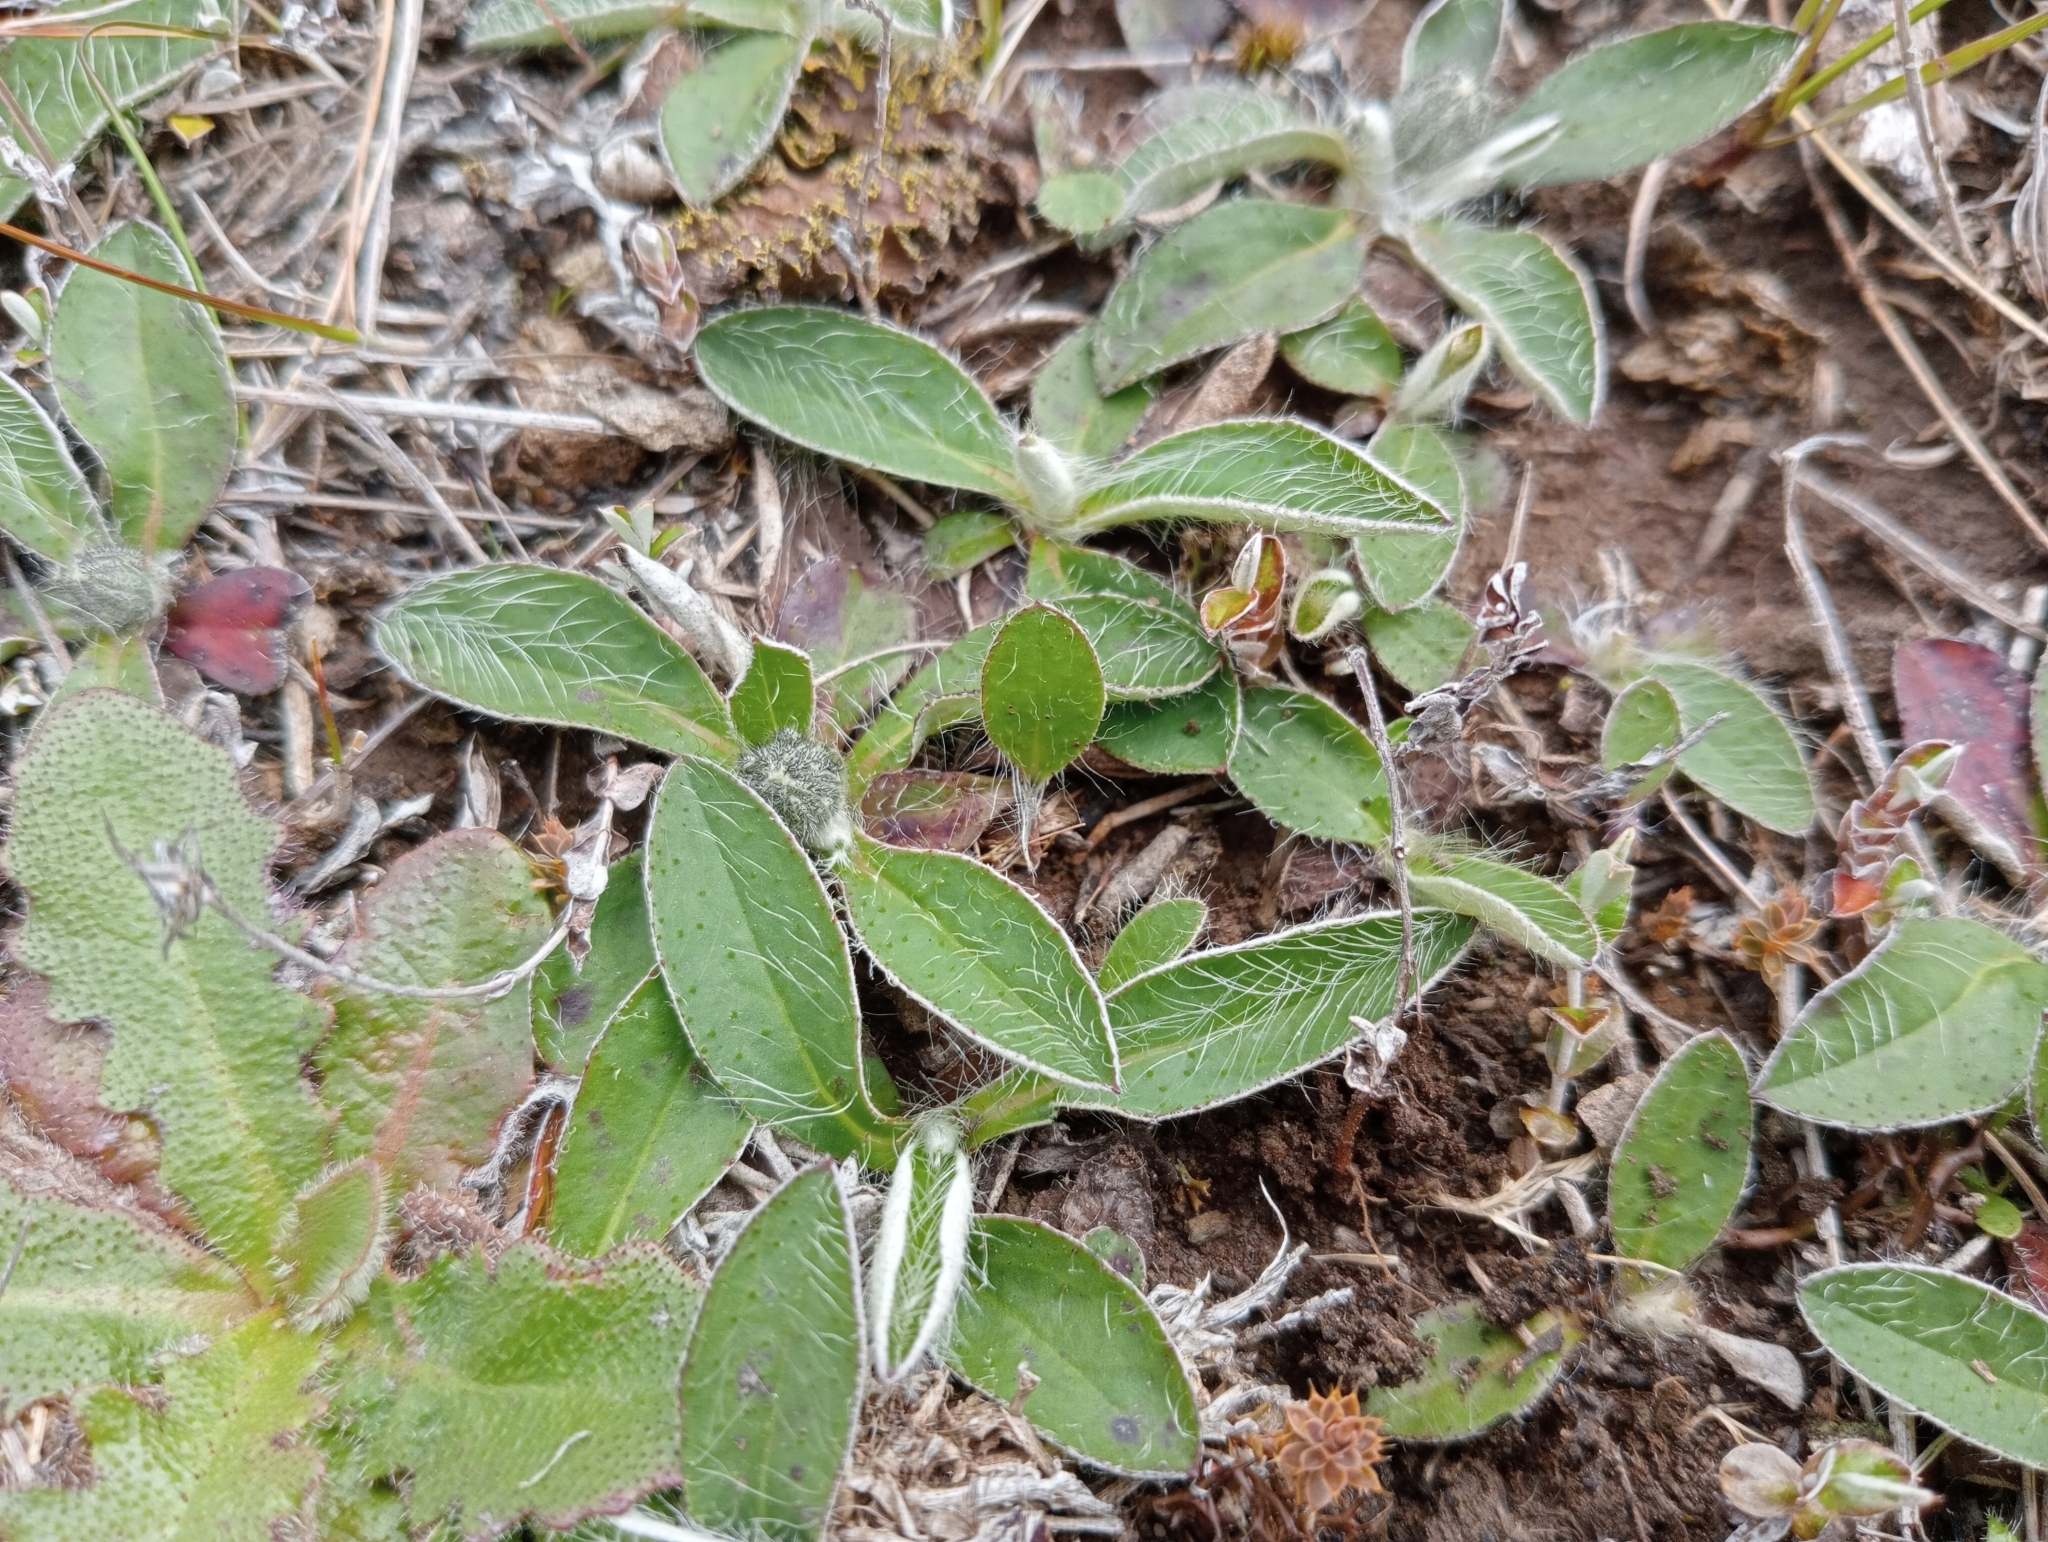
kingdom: Plantae
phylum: Tracheophyta
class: Magnoliopsida
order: Asterales
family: Asteraceae
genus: Pilosella
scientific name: Pilosella officinarum
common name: Mouse-ear hawkweed
